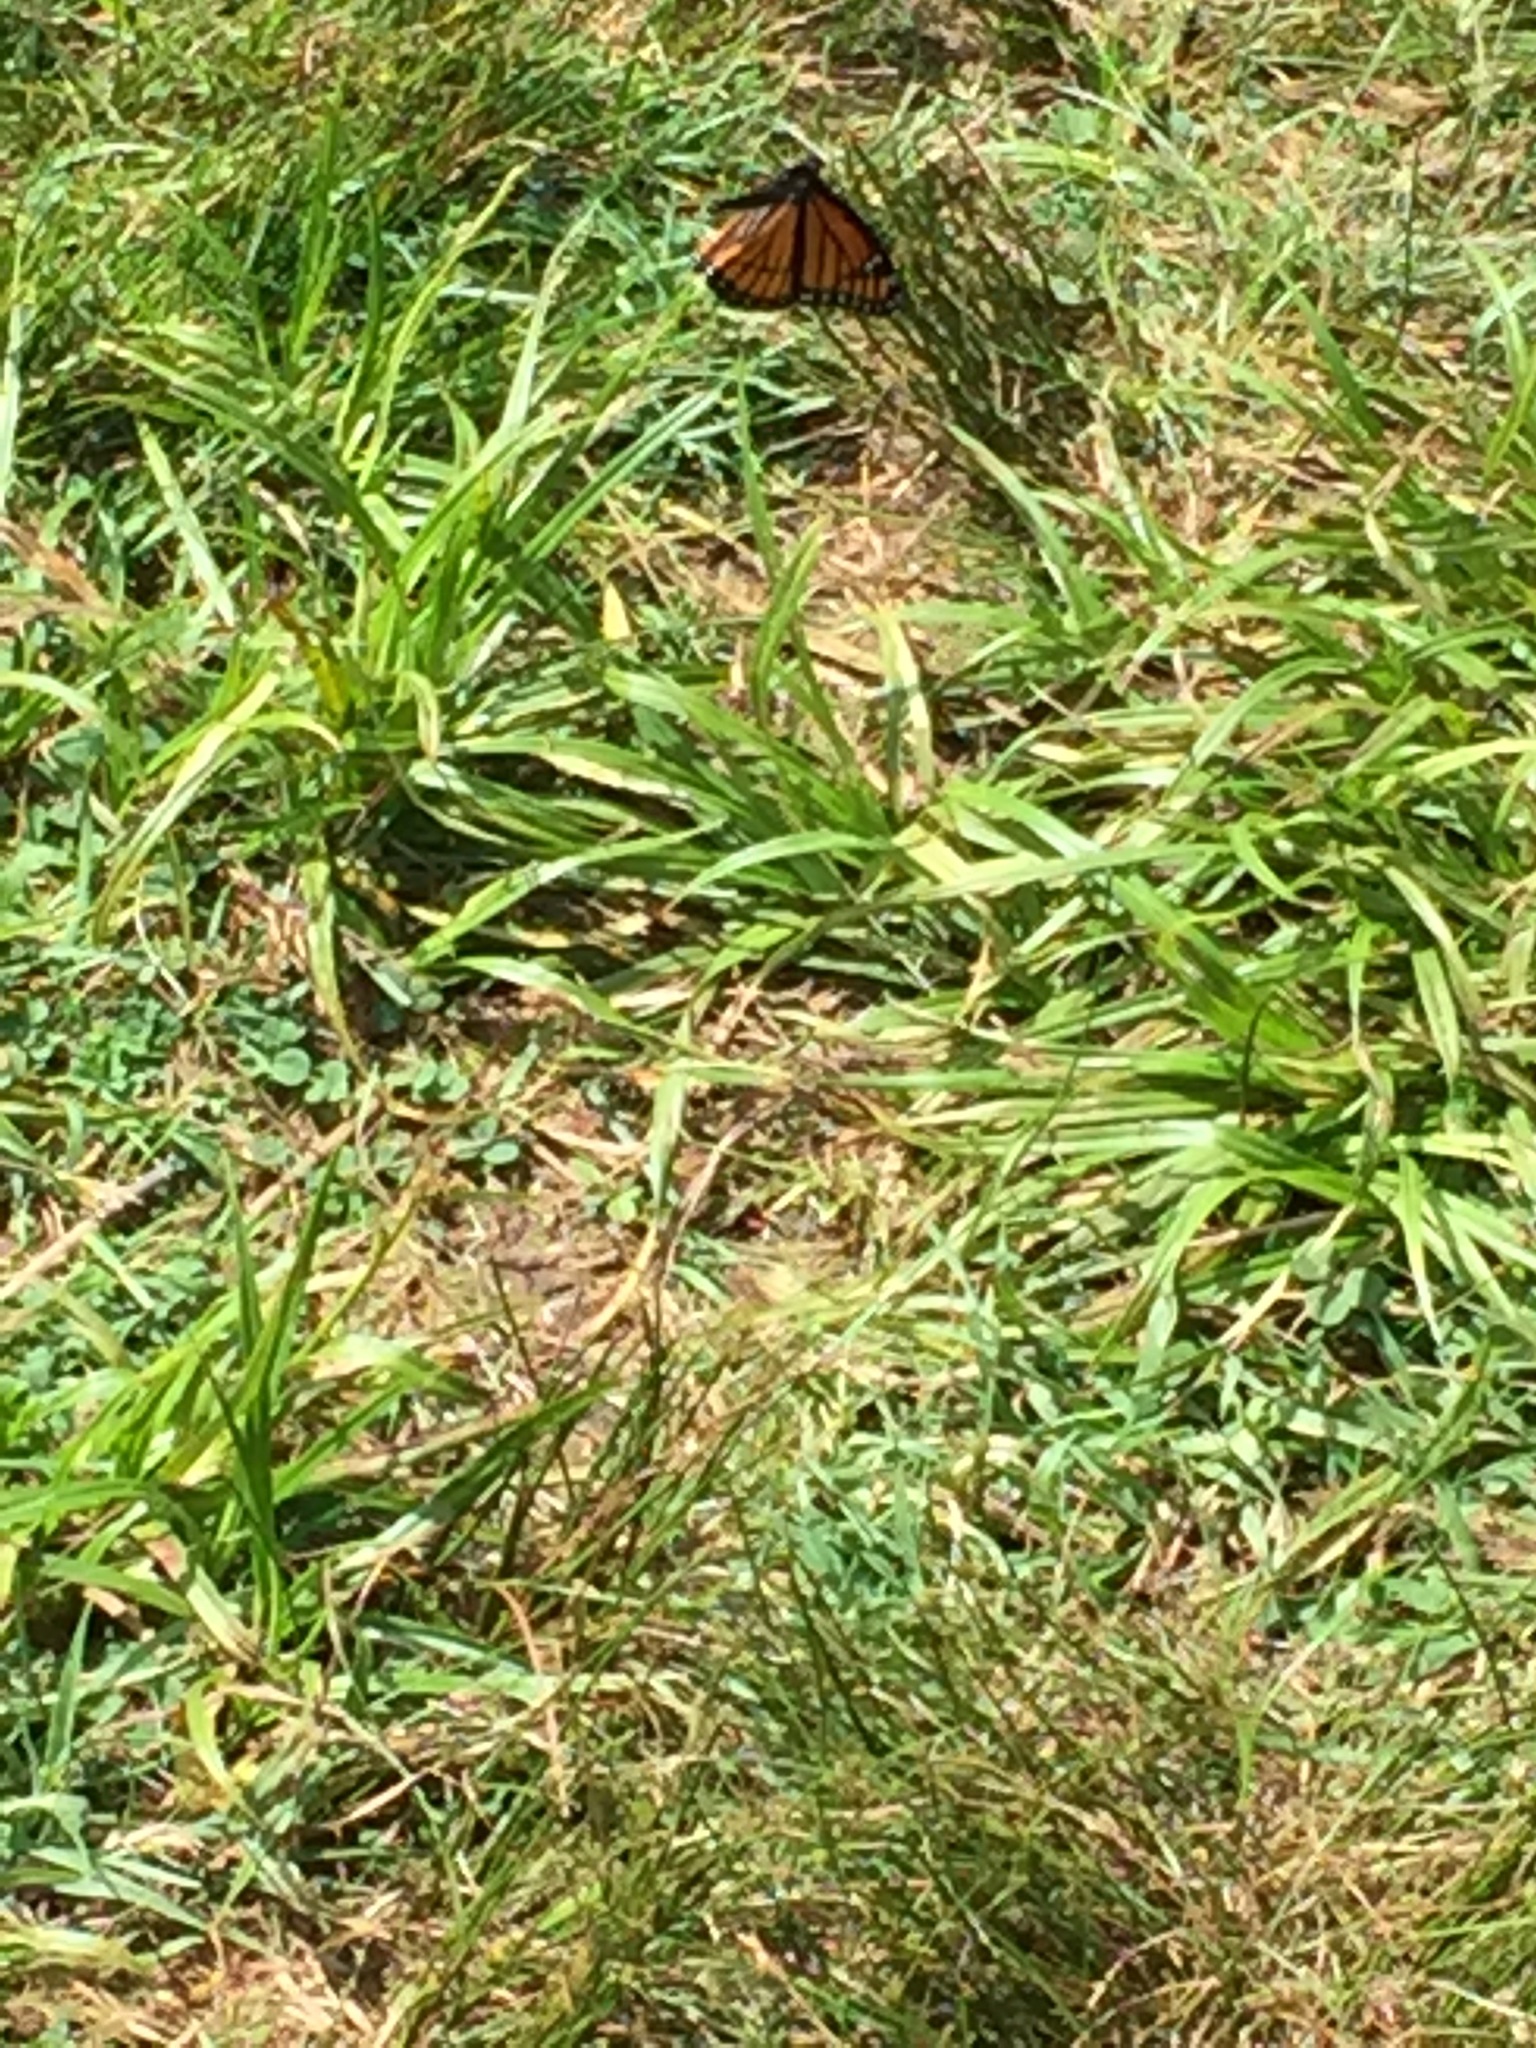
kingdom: Animalia
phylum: Arthropoda
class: Insecta
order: Lepidoptera
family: Nymphalidae
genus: Limenitis
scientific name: Limenitis archippus
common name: Viceroy
